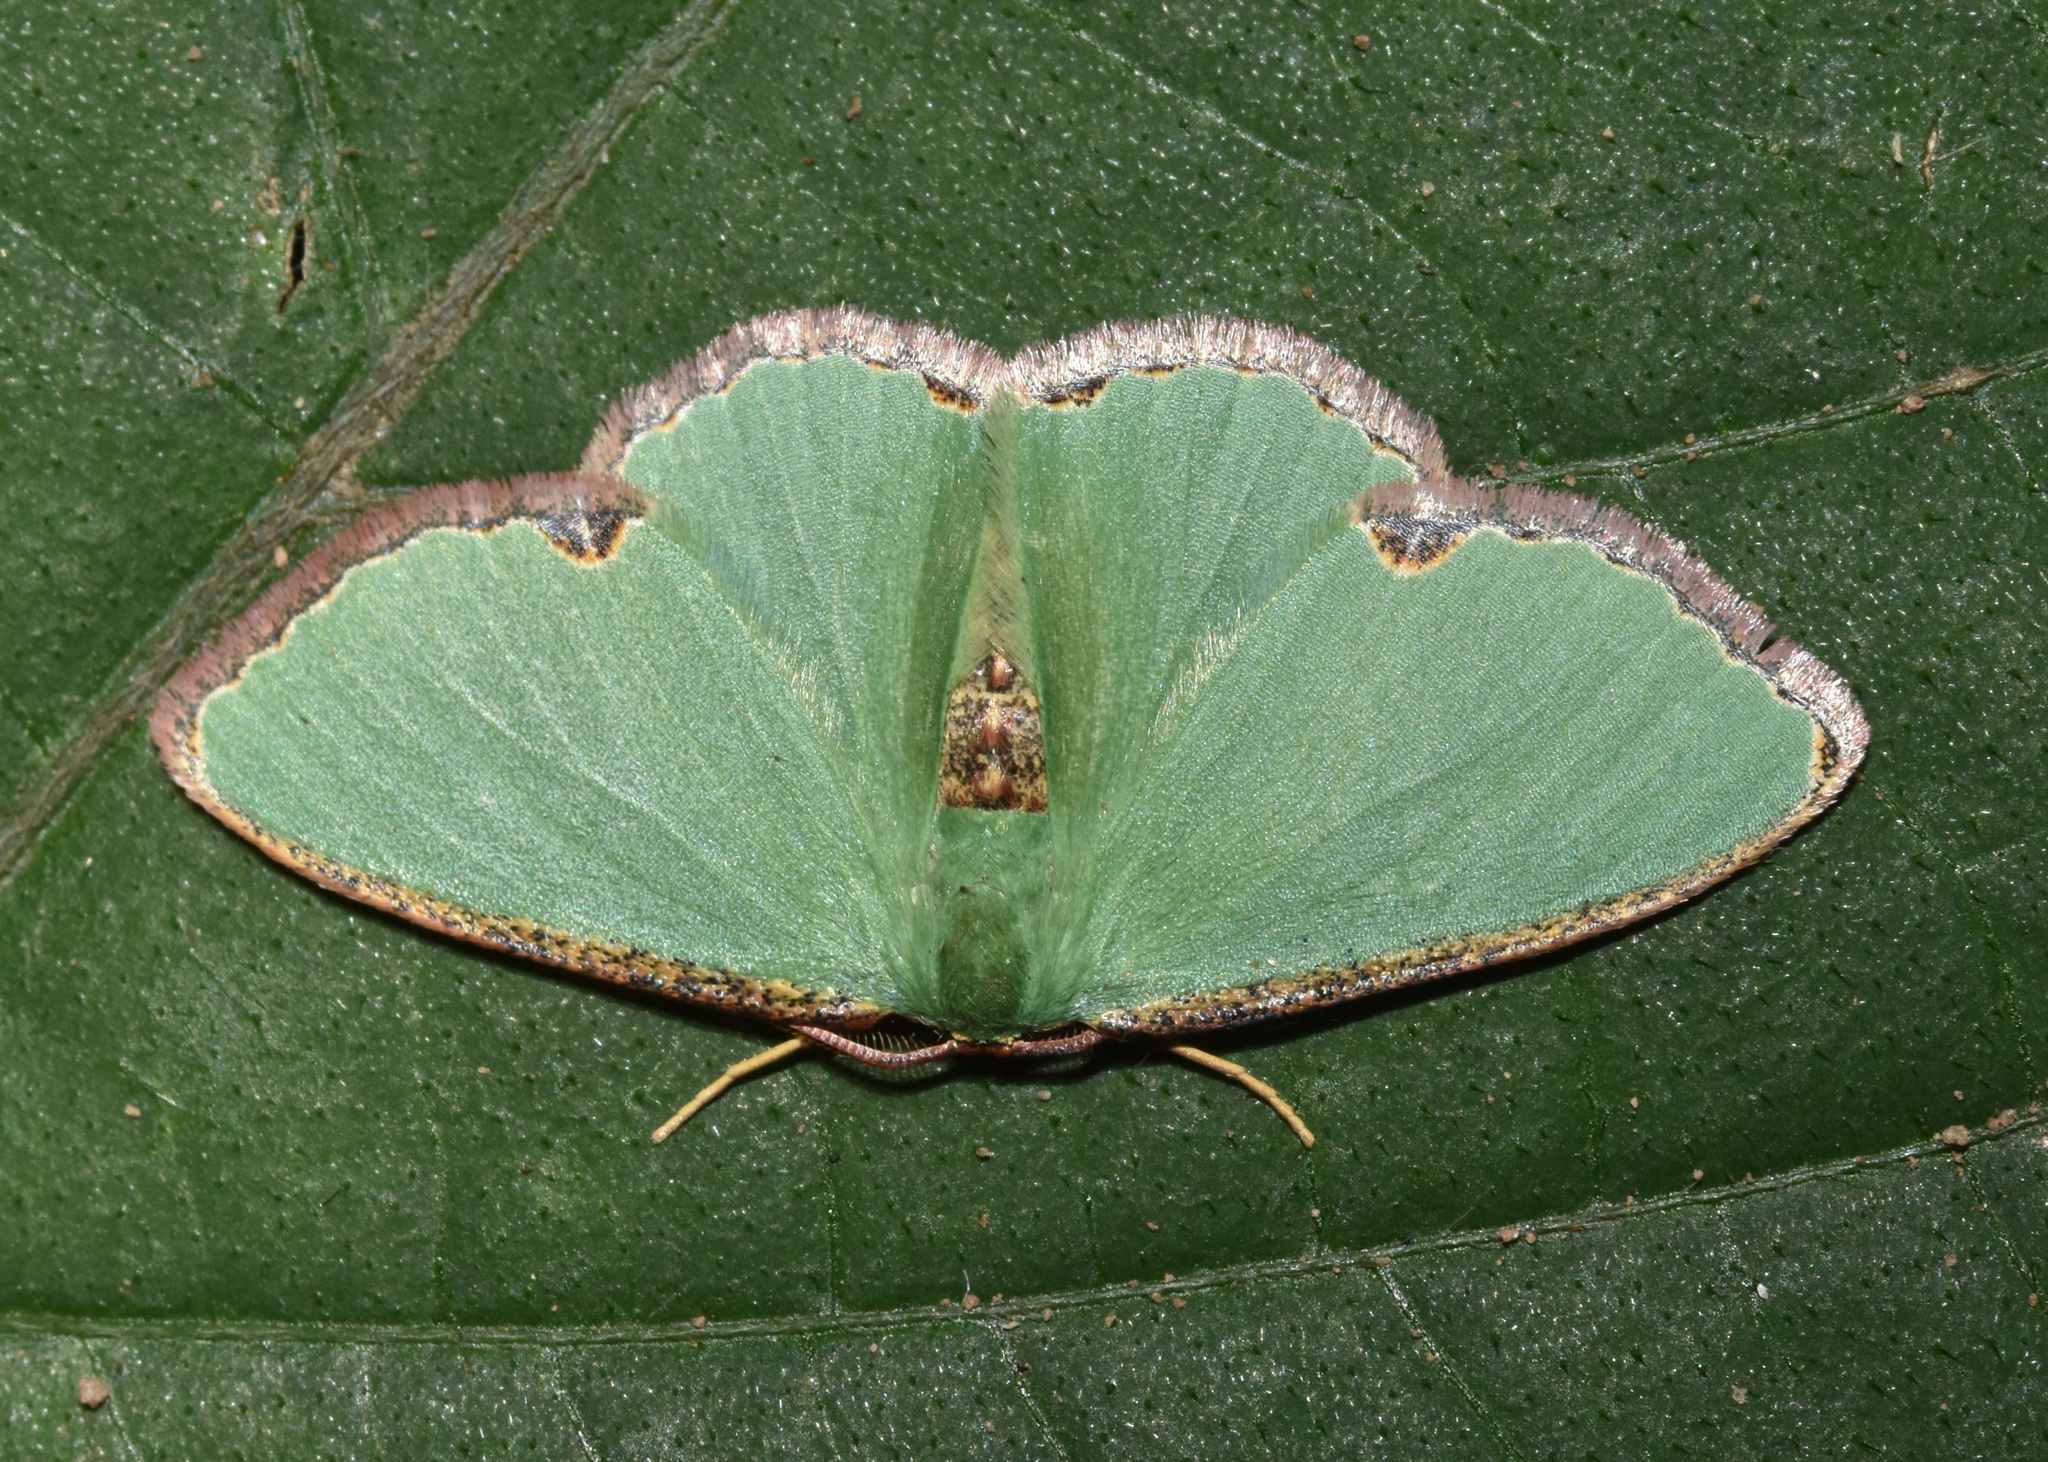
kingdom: Animalia
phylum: Arthropoda
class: Insecta
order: Lepidoptera
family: Geometridae
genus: Heterorachis
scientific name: Heterorachis devocata
